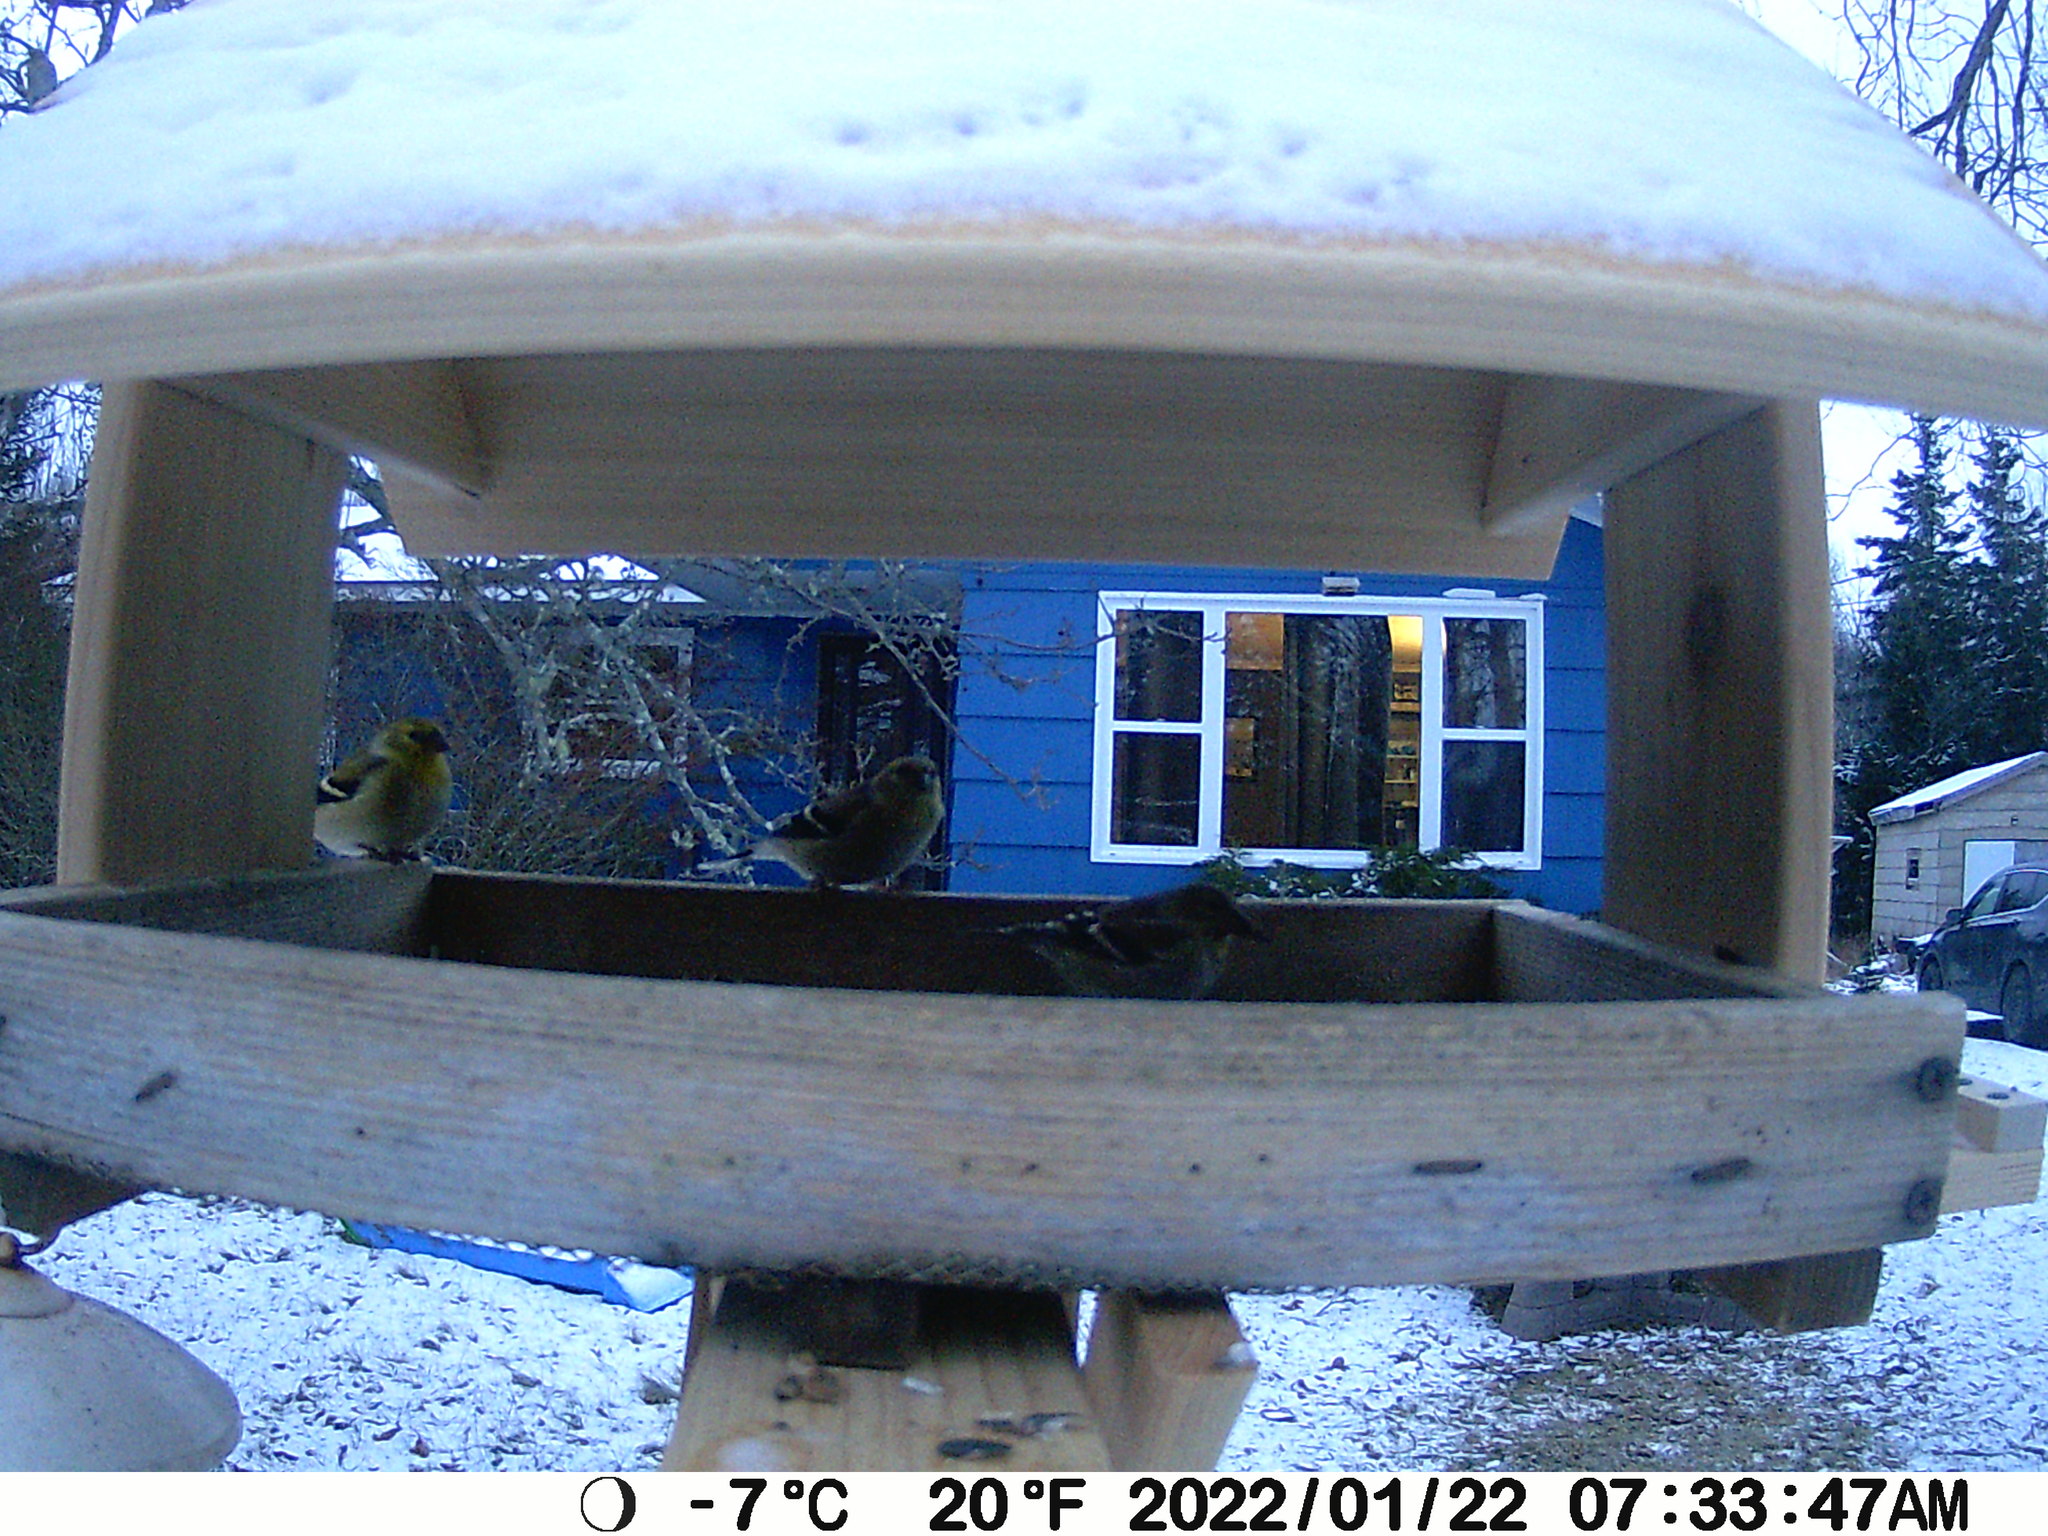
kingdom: Animalia
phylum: Chordata
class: Aves
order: Passeriformes
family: Fringillidae
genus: Spinus
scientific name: Spinus tristis
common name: American goldfinch
